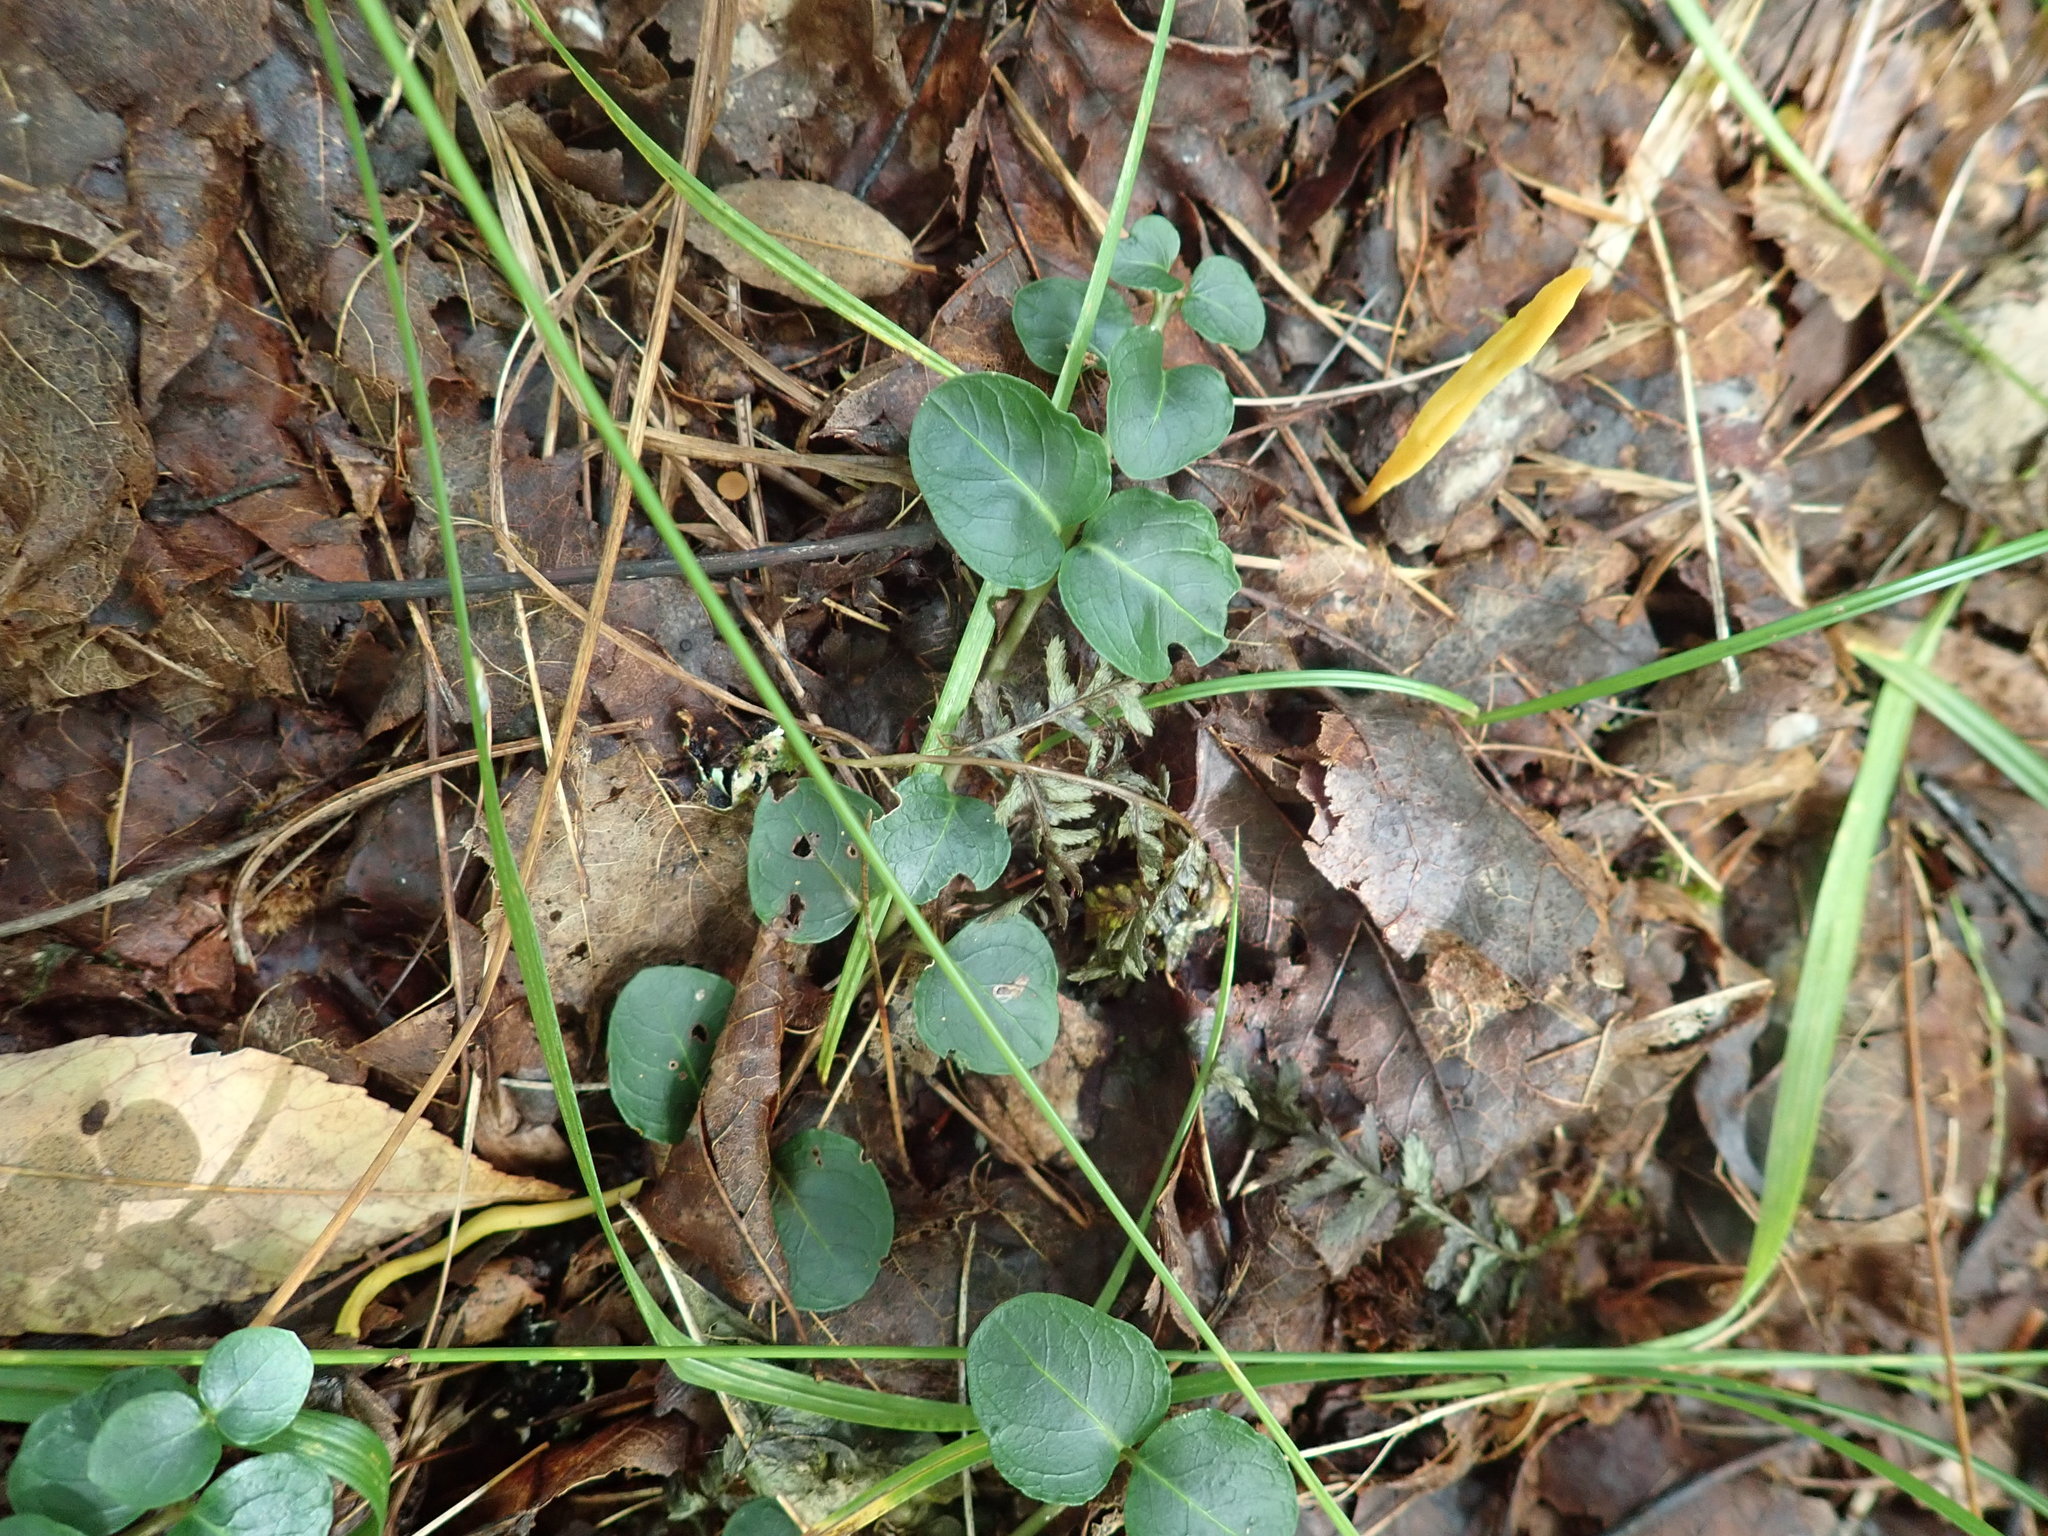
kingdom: Plantae
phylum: Tracheophyta
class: Magnoliopsida
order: Gentianales
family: Rubiaceae
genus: Mitchella
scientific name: Mitchella repens
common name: Partridge-berry
